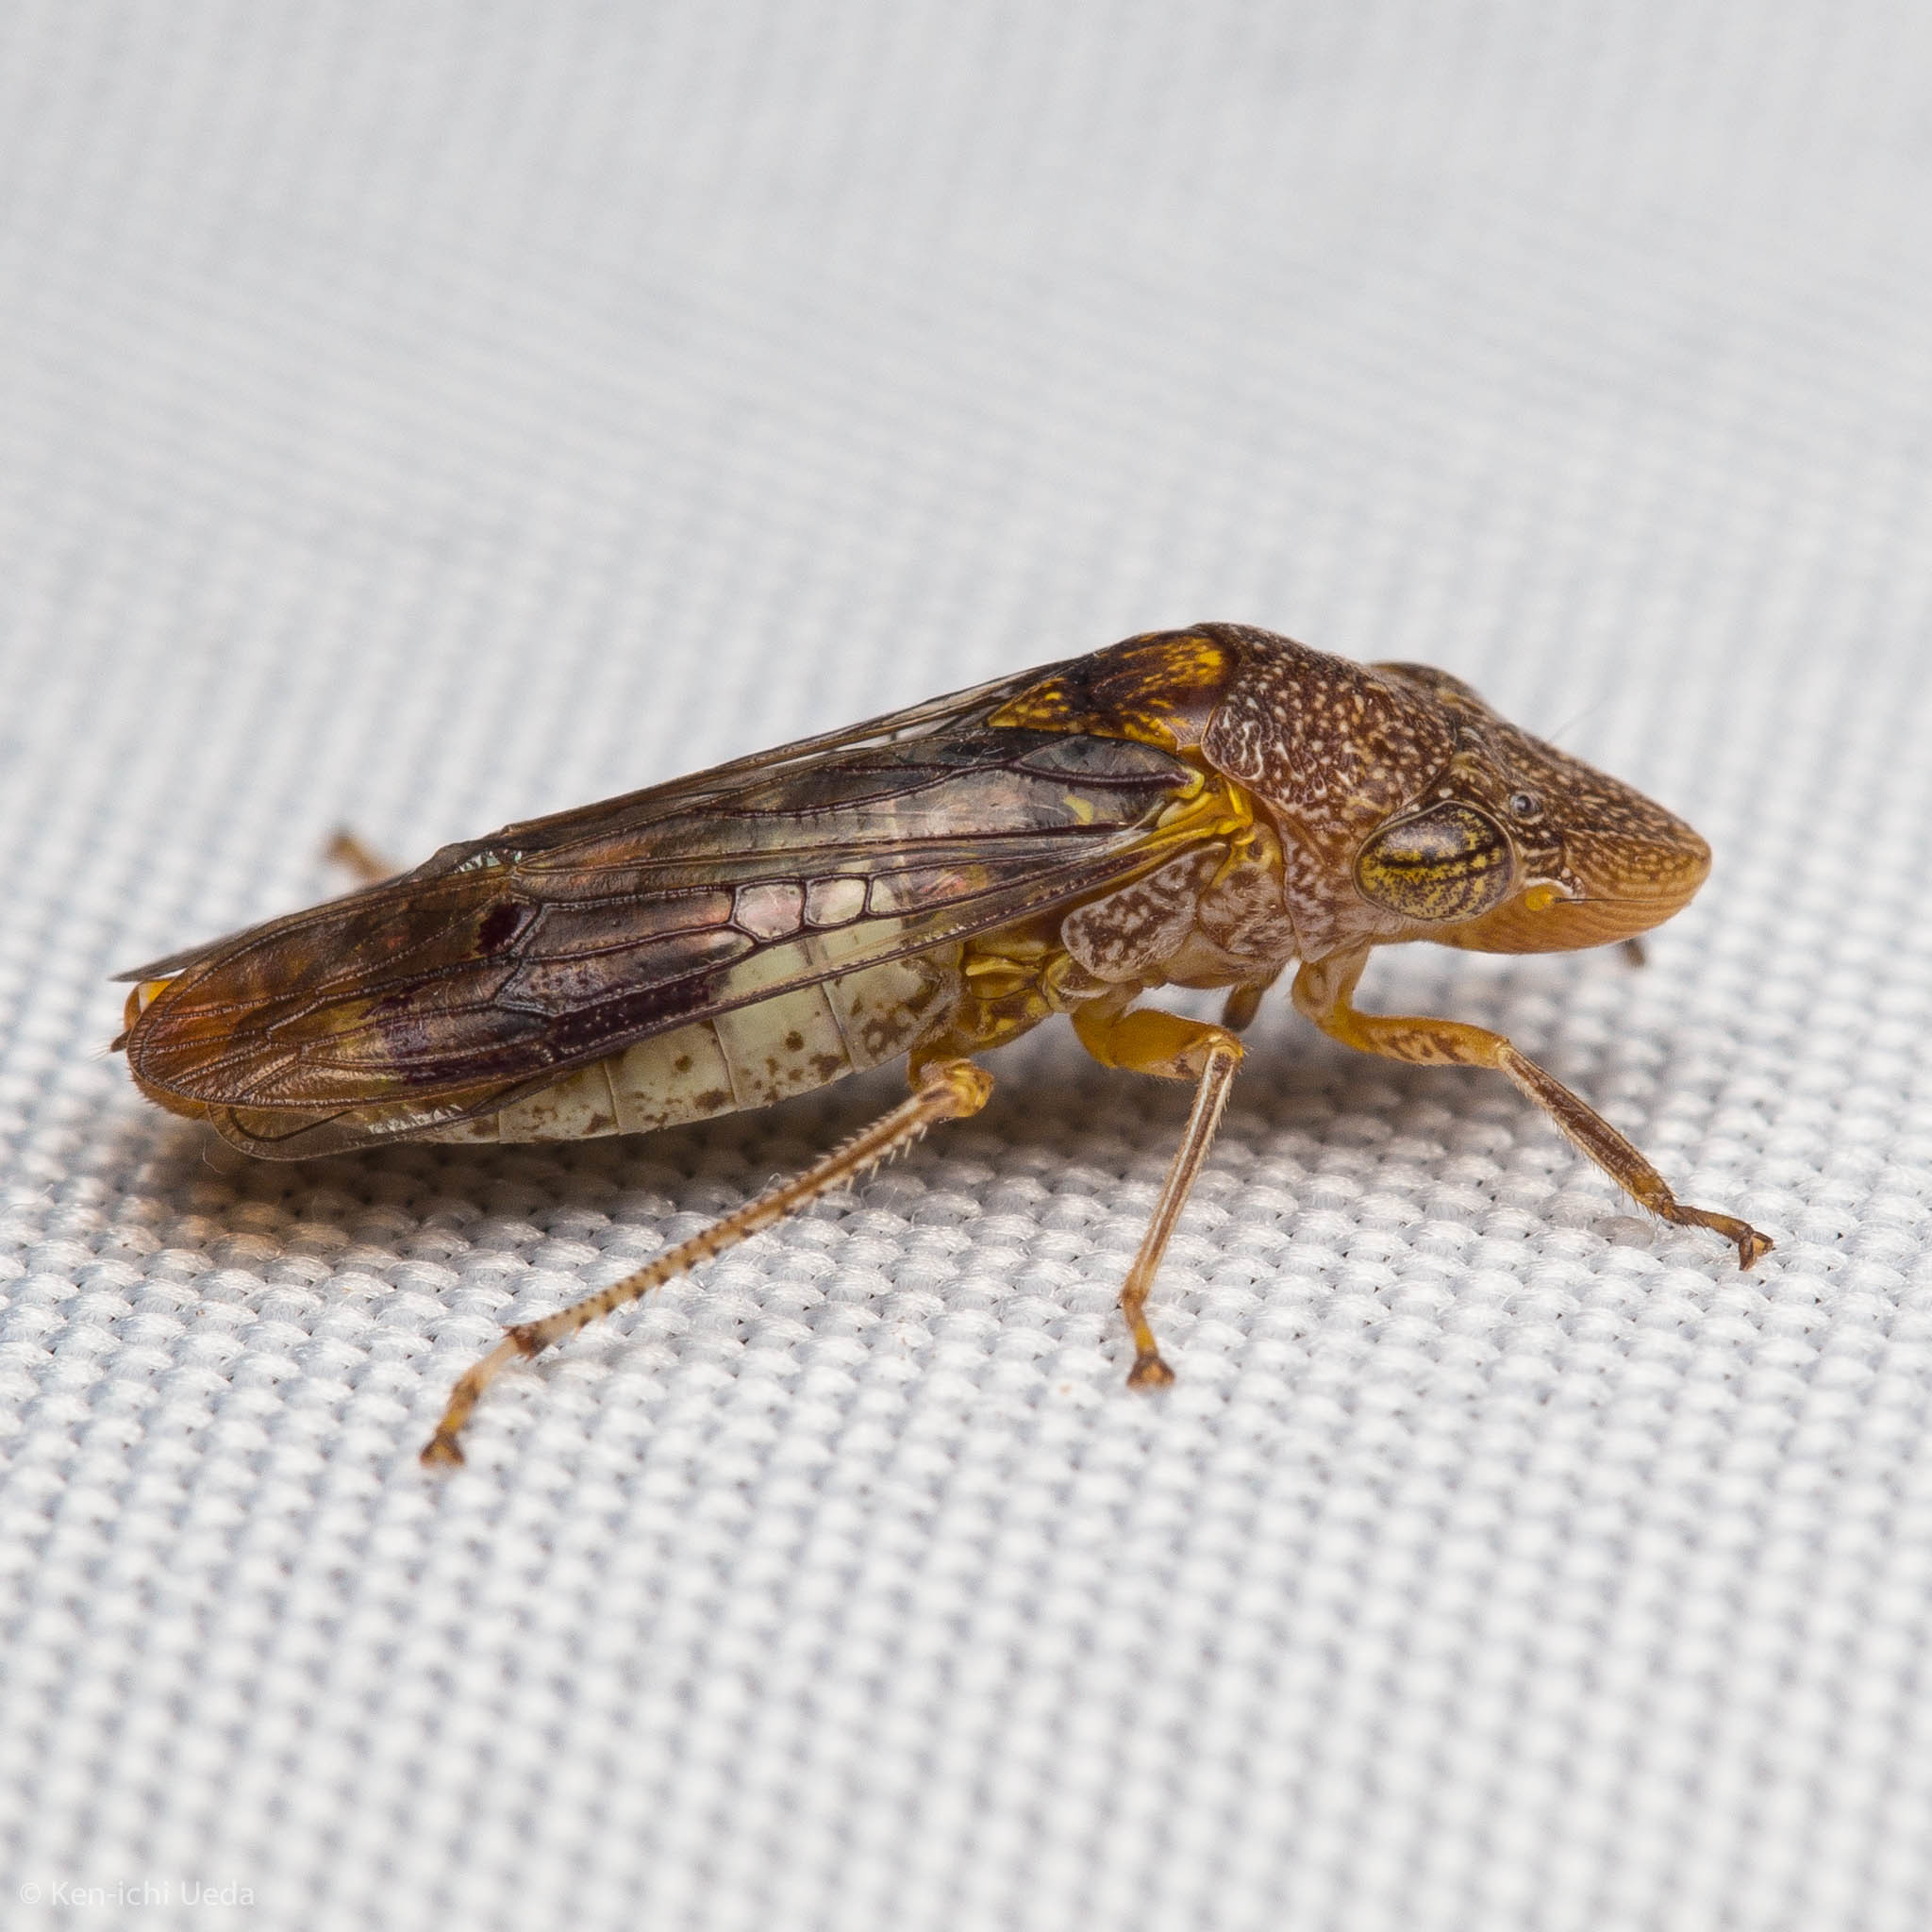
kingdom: Animalia
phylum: Arthropoda
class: Insecta
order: Hemiptera
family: Cicadellidae
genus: Homalodisca
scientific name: Homalodisca vitripennis
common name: Glassy-winged sharpshooter
